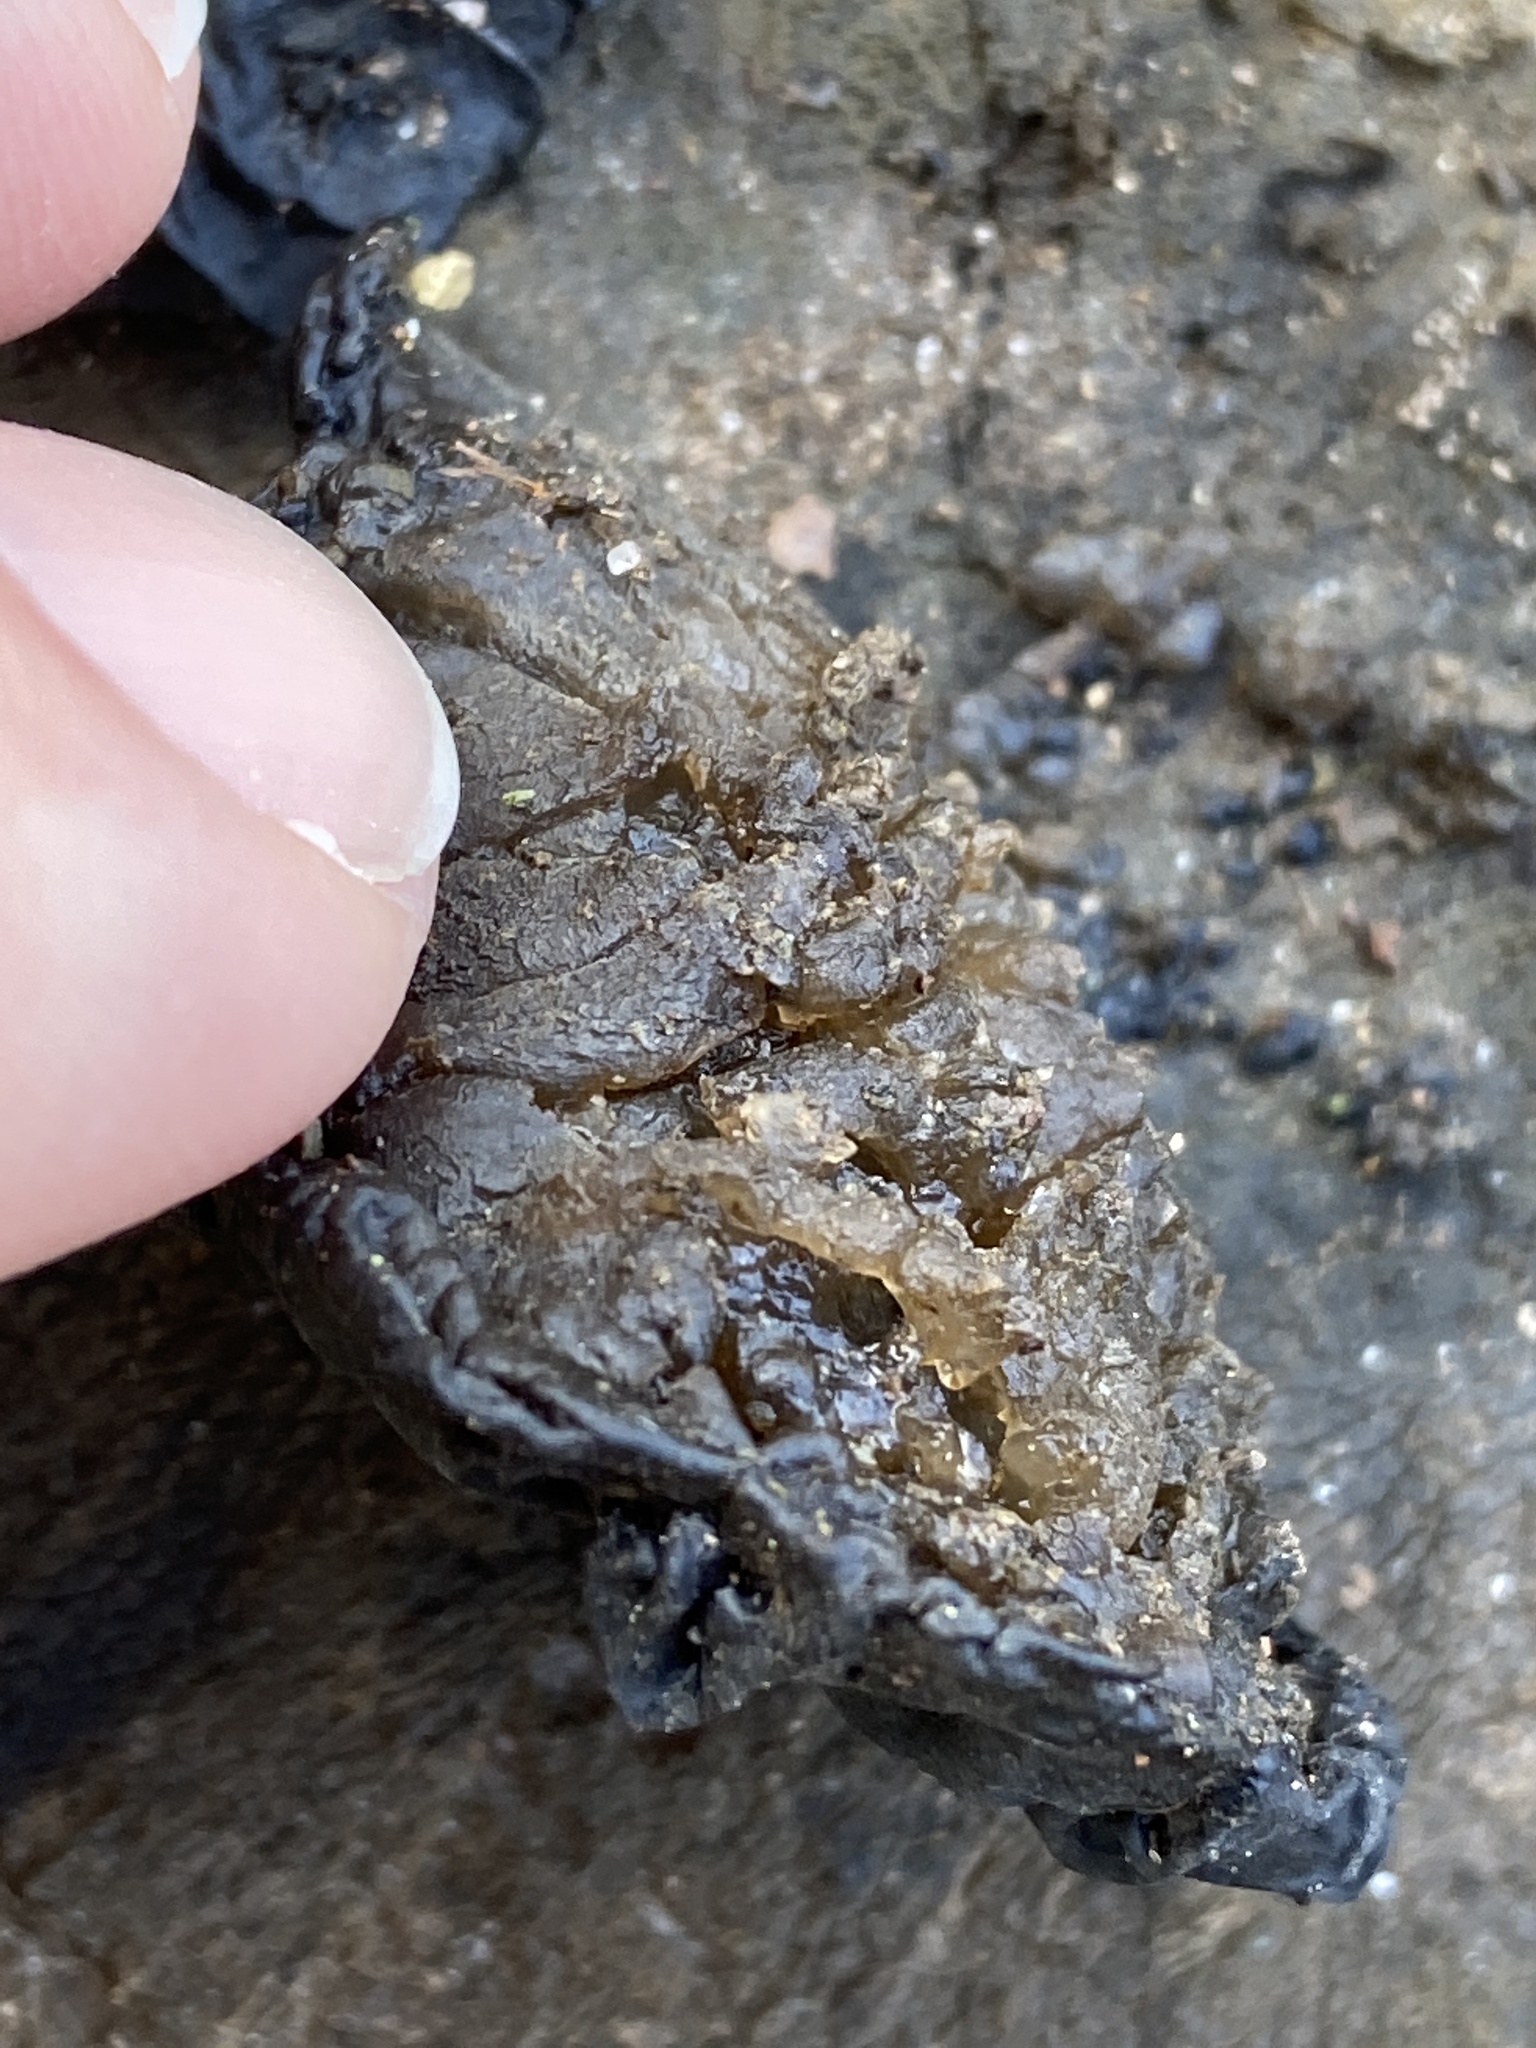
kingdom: Fungi
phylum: Basidiomycota
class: Agaricomycetes
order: Auriculariales
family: Auriculariaceae
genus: Exidia
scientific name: Exidia nigricans
